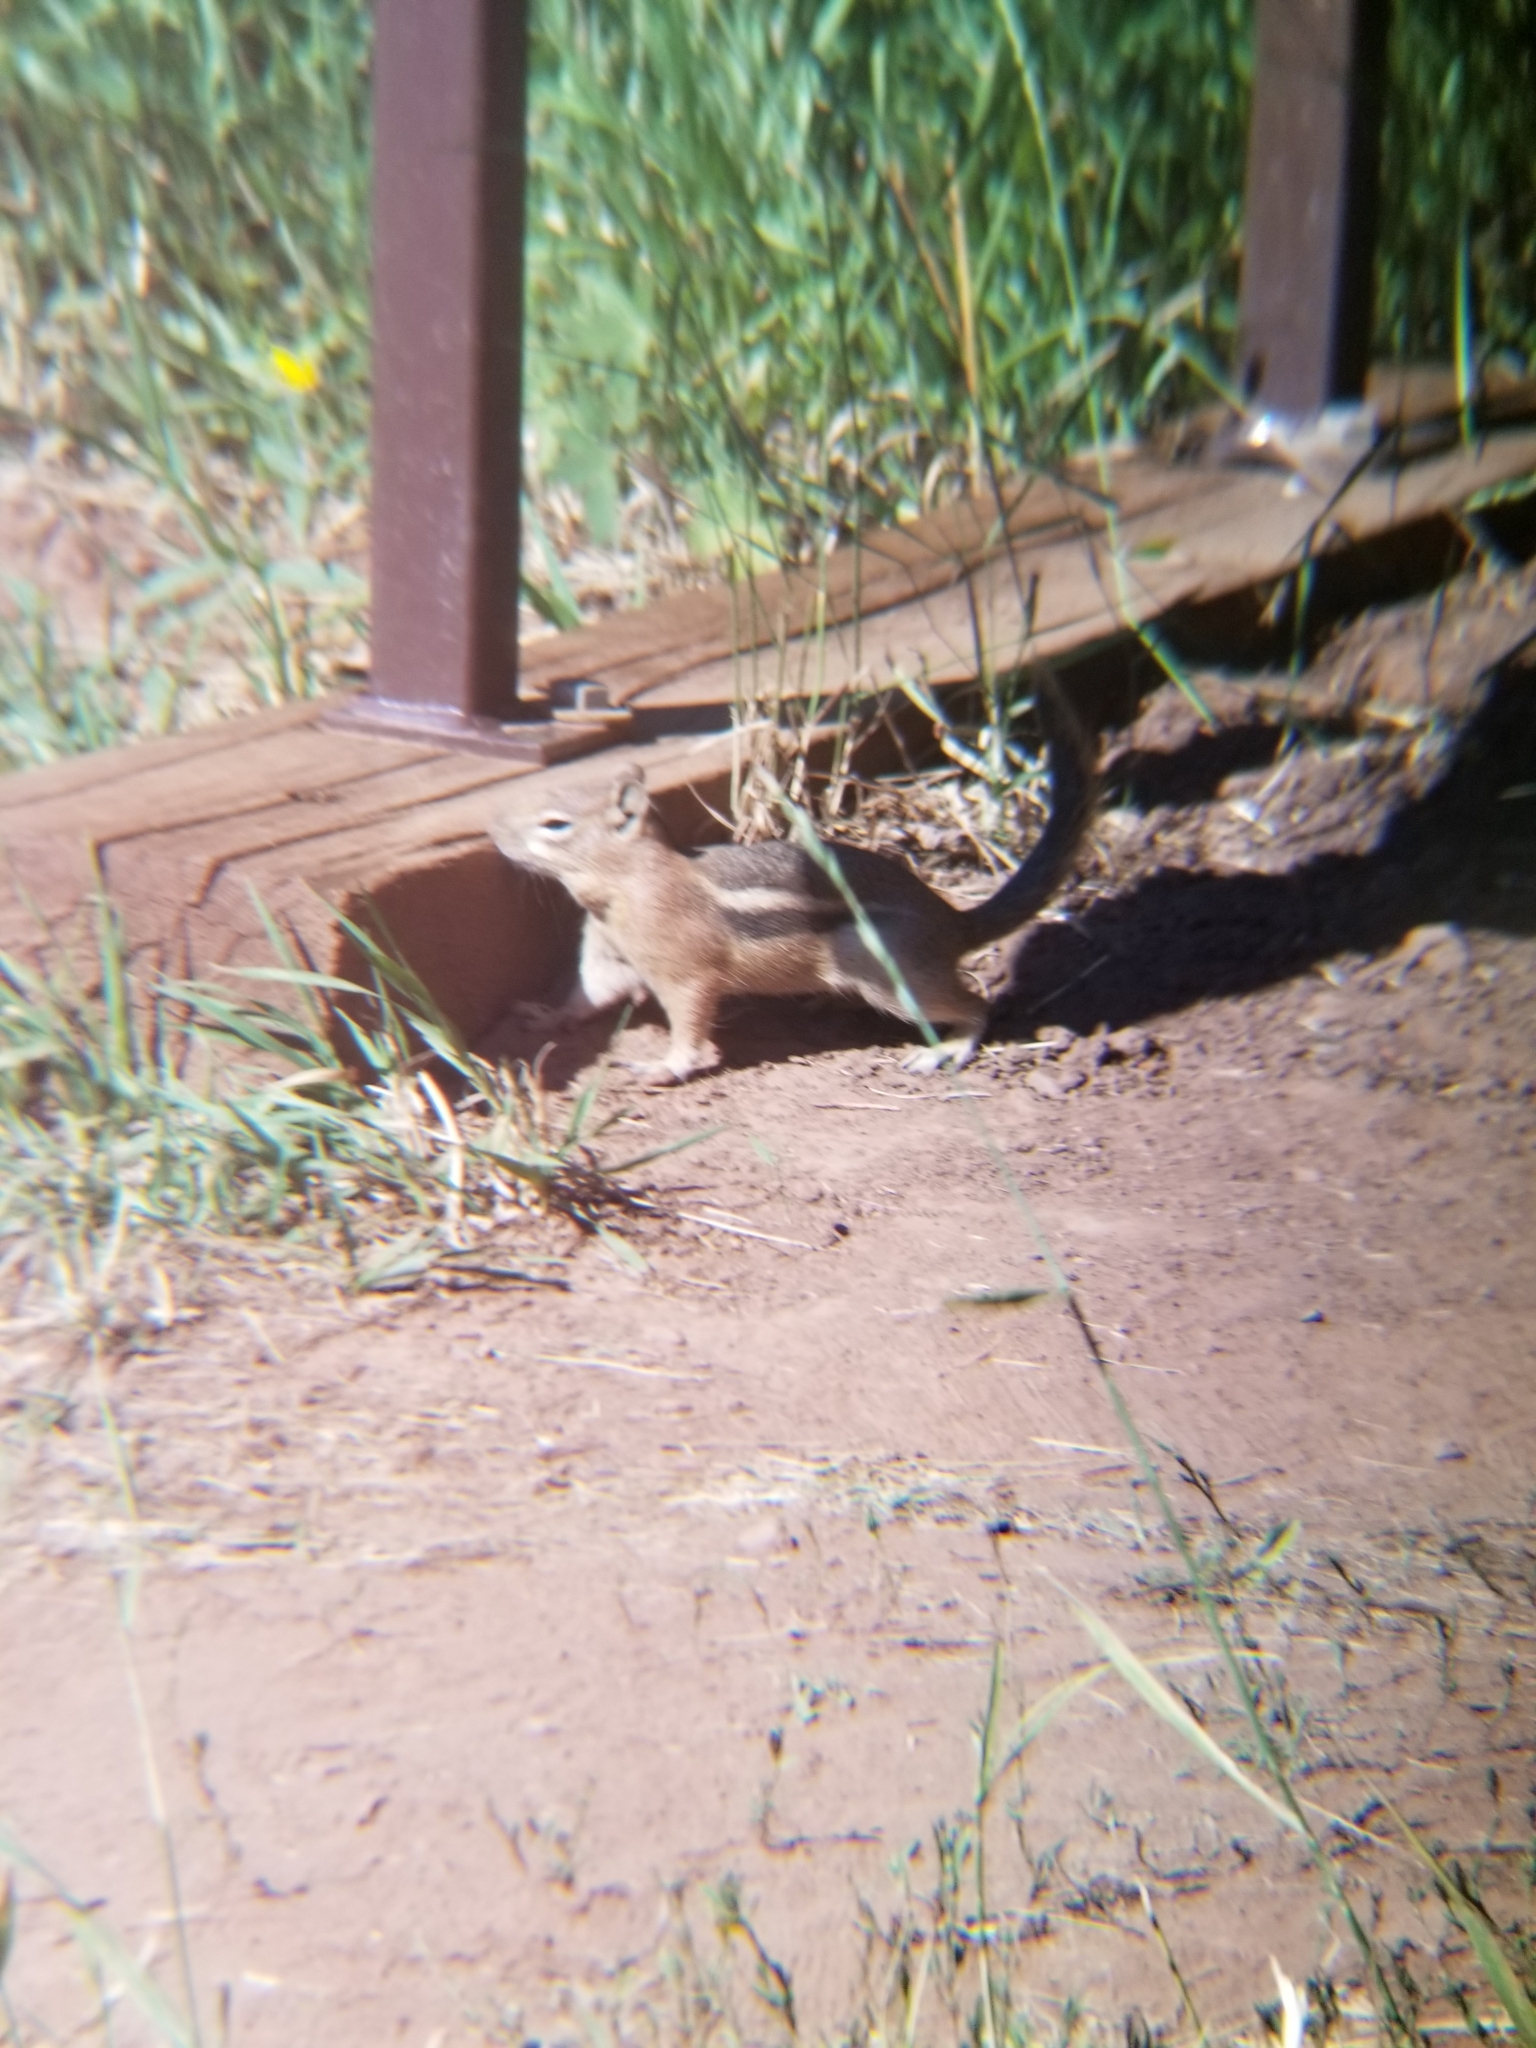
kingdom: Animalia
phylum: Chordata
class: Mammalia
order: Rodentia
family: Sciuridae
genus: Callospermophilus
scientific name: Callospermophilus lateralis
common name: Golden-mantled ground squirrel
